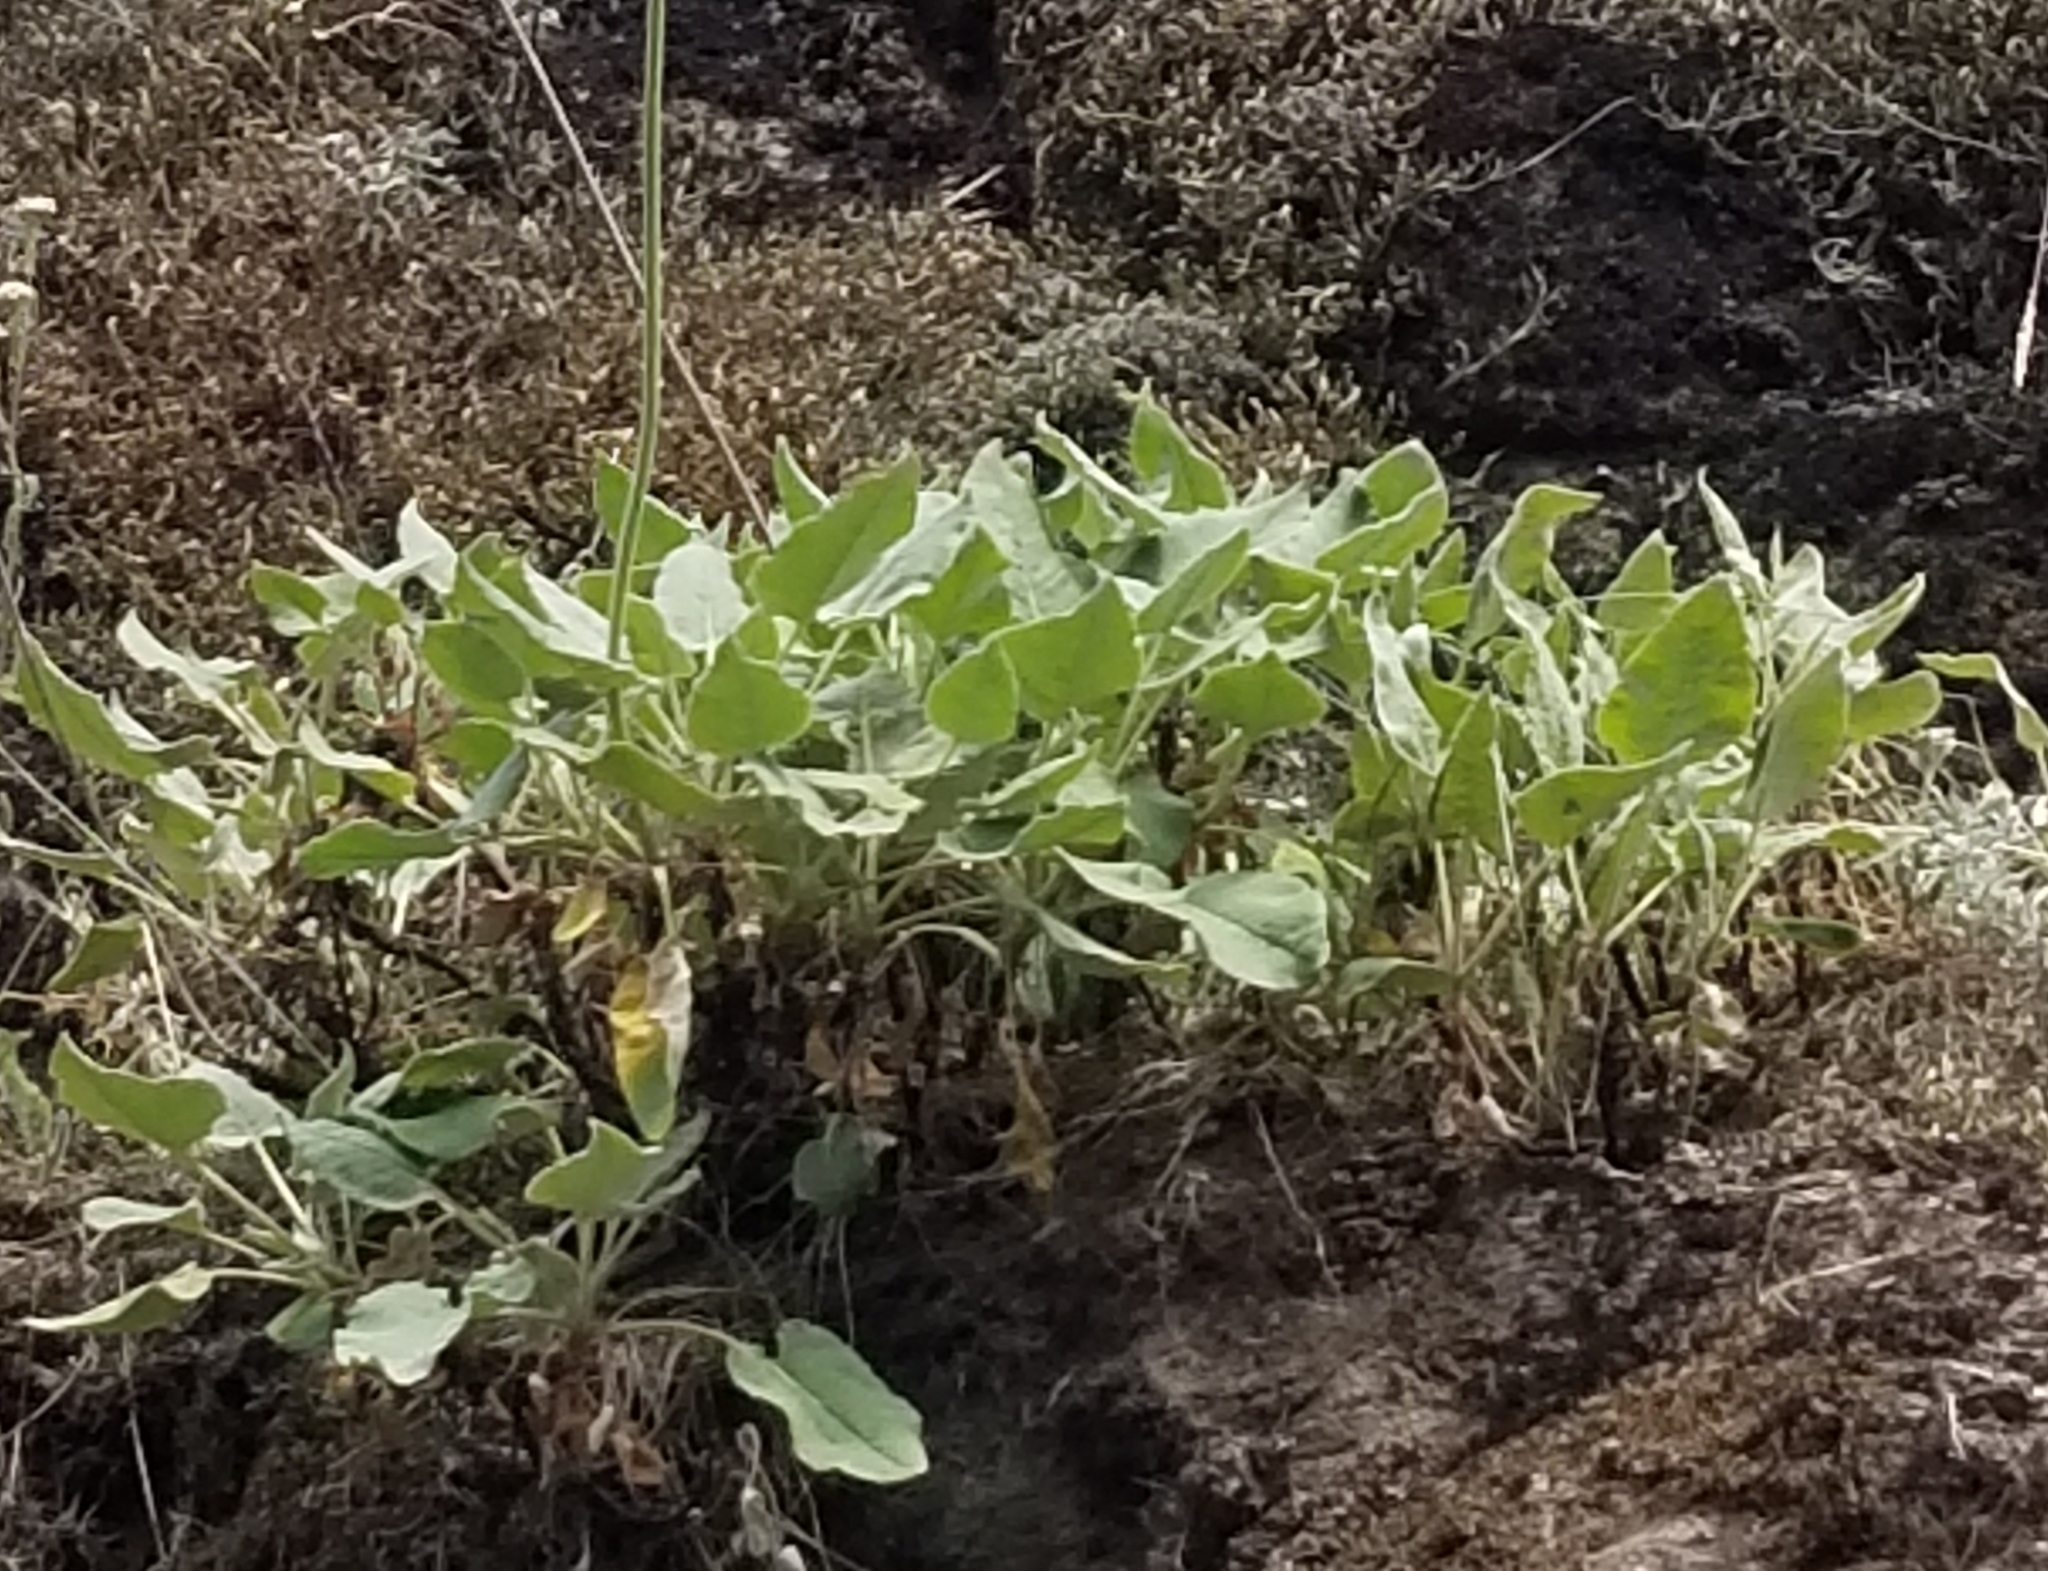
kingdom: Plantae
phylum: Tracheophyta
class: Magnoliopsida
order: Caryophyllales
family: Polygonaceae
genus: Eriogonum
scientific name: Eriogonum compositum
